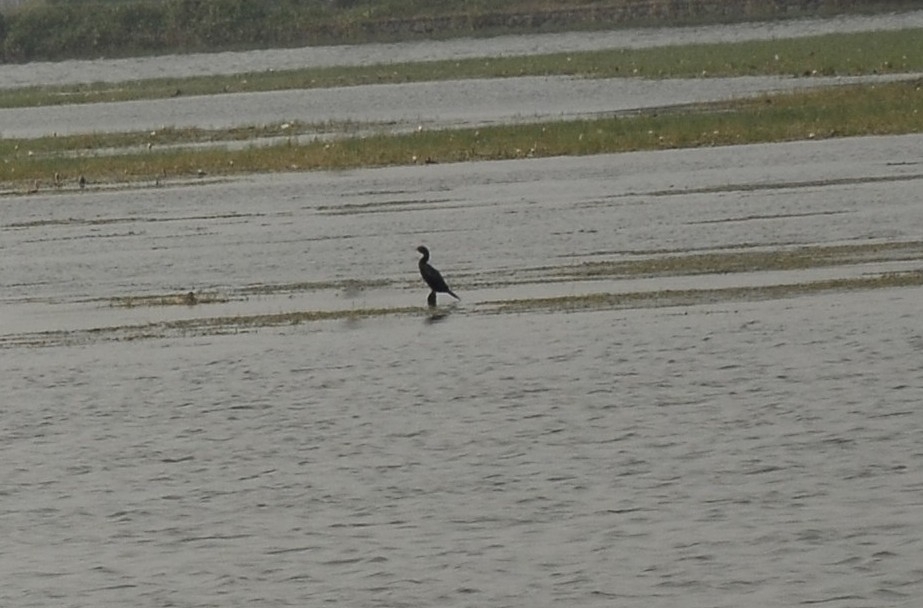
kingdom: Animalia
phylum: Chordata
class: Aves
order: Suliformes
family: Phalacrocoracidae
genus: Microcarbo
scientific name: Microcarbo niger
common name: Little cormorant
